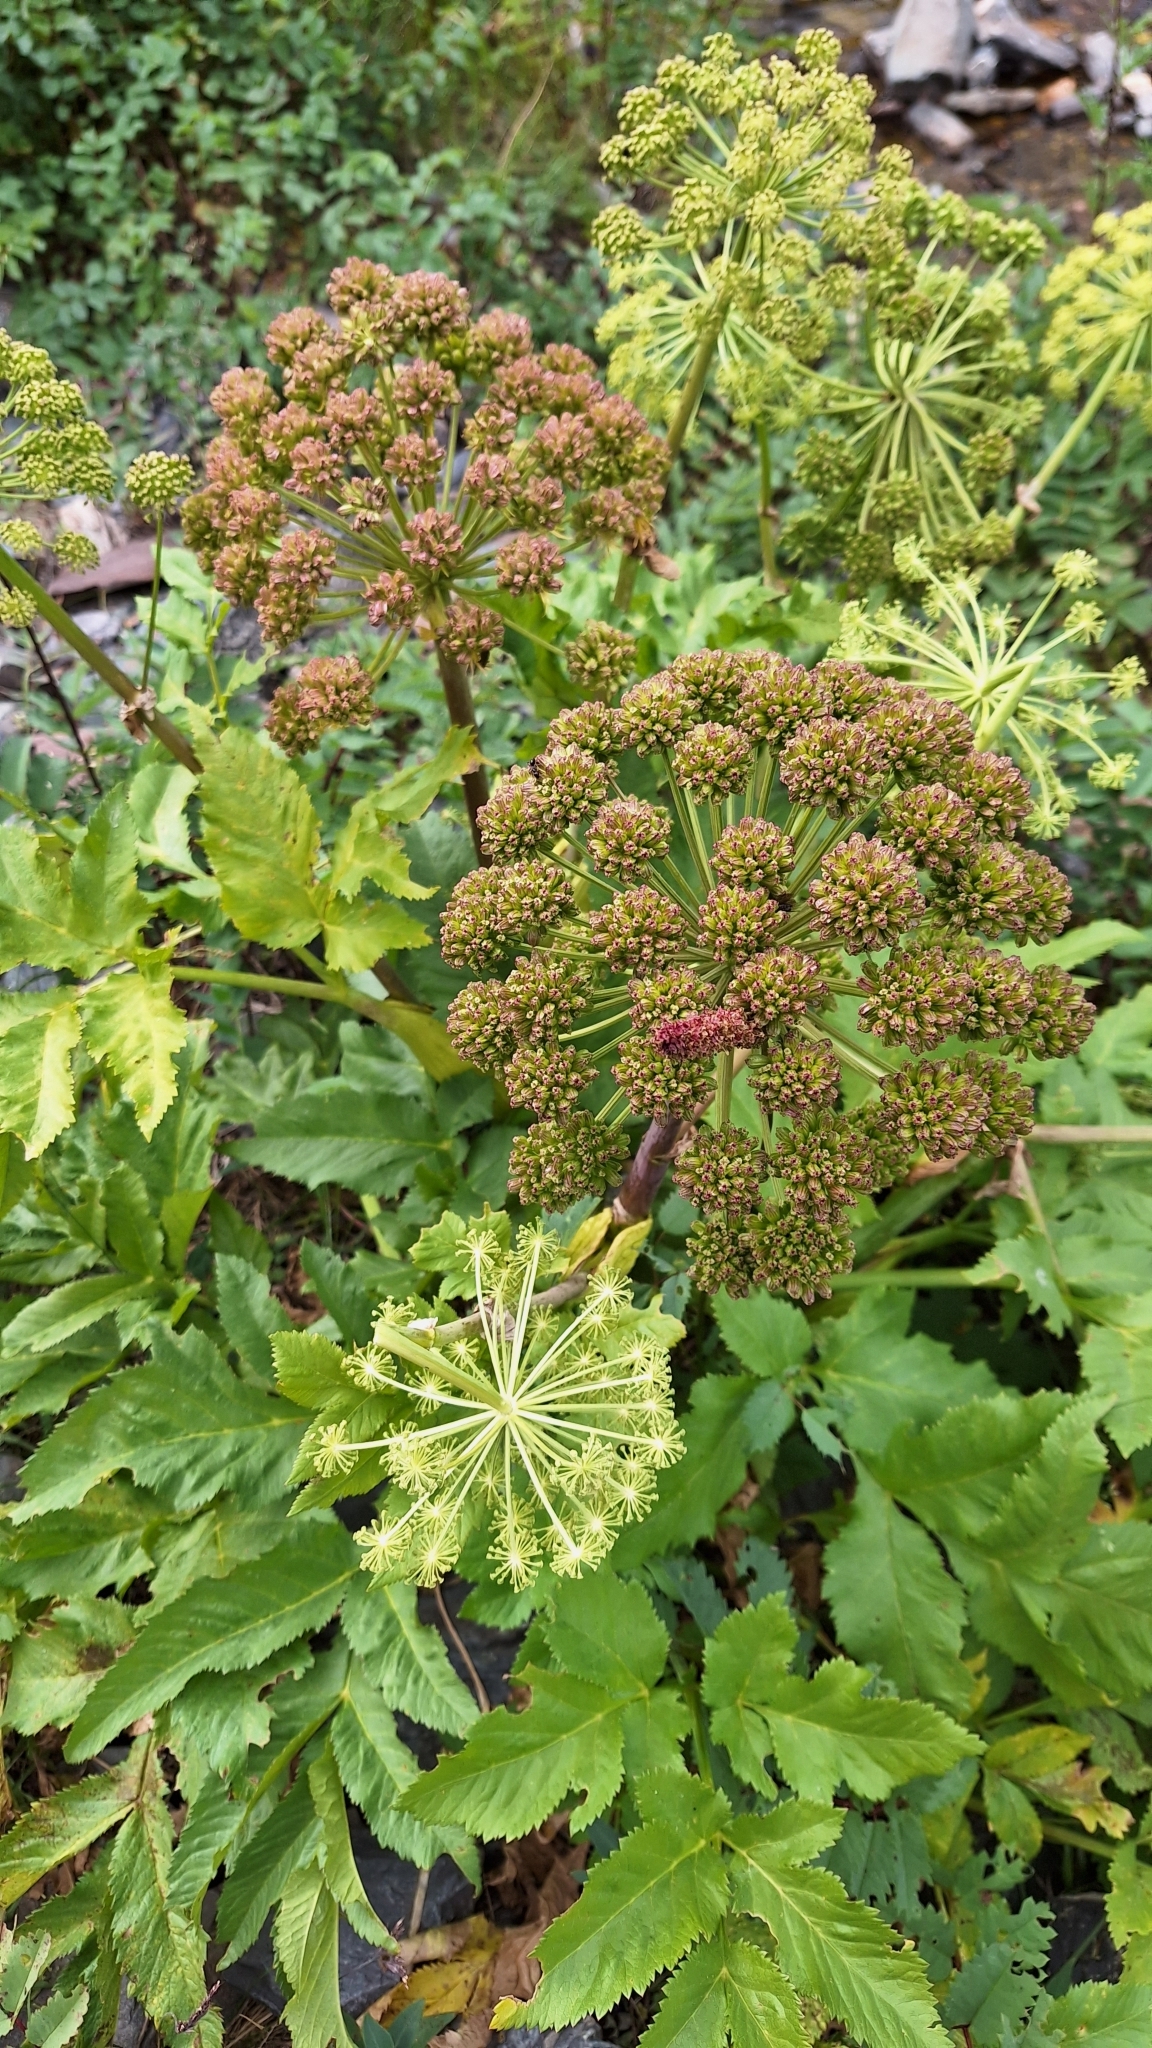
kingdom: Plantae
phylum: Tracheophyta
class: Magnoliopsida
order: Apiales
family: Apiaceae
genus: Angelica
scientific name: Angelica decurrens
